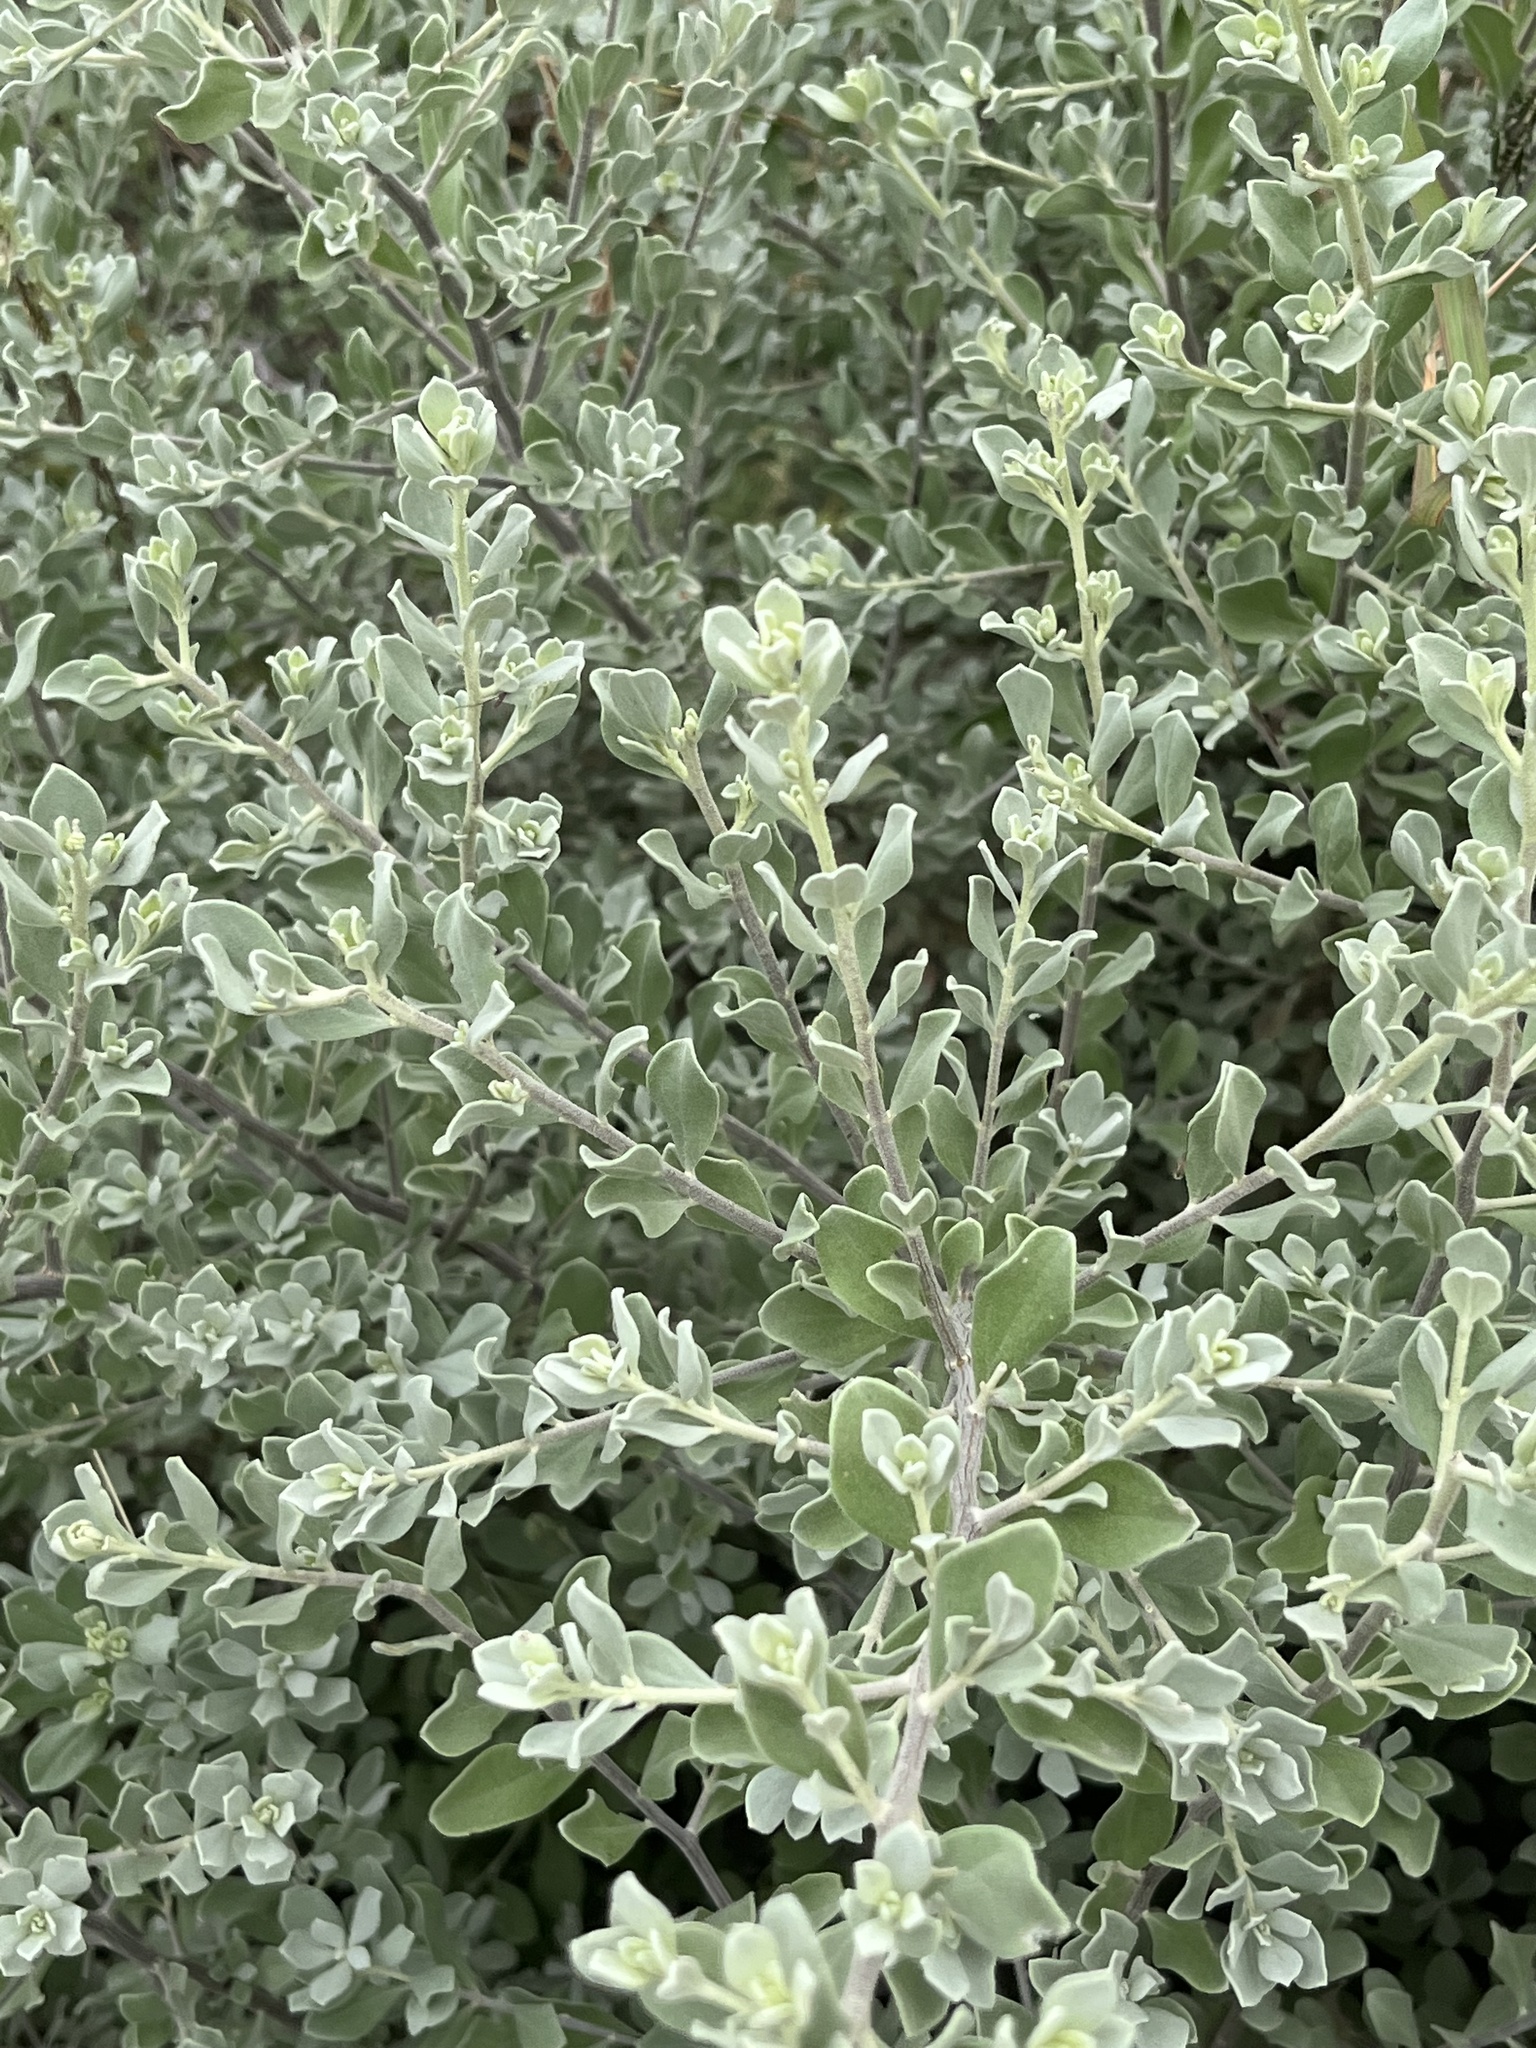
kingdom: Plantae
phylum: Tracheophyta
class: Magnoliopsida
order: Lamiales
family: Scrophulariaceae
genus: Leucophyllum
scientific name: Leucophyllum frutescens
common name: Texas silverleaf
